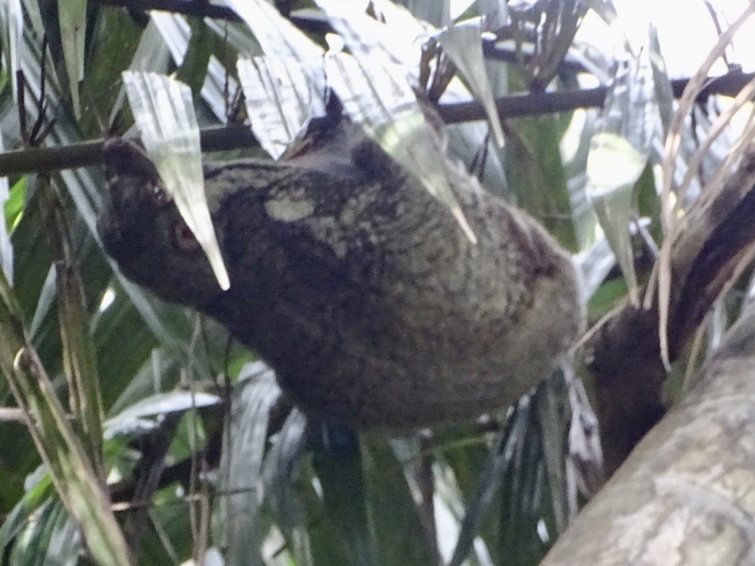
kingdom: Animalia
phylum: Chordata
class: Mammalia
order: Dermoptera
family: Cynocephalidae
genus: Galeopterus
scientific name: Galeopterus variegatus
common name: Sunda flying lemur
